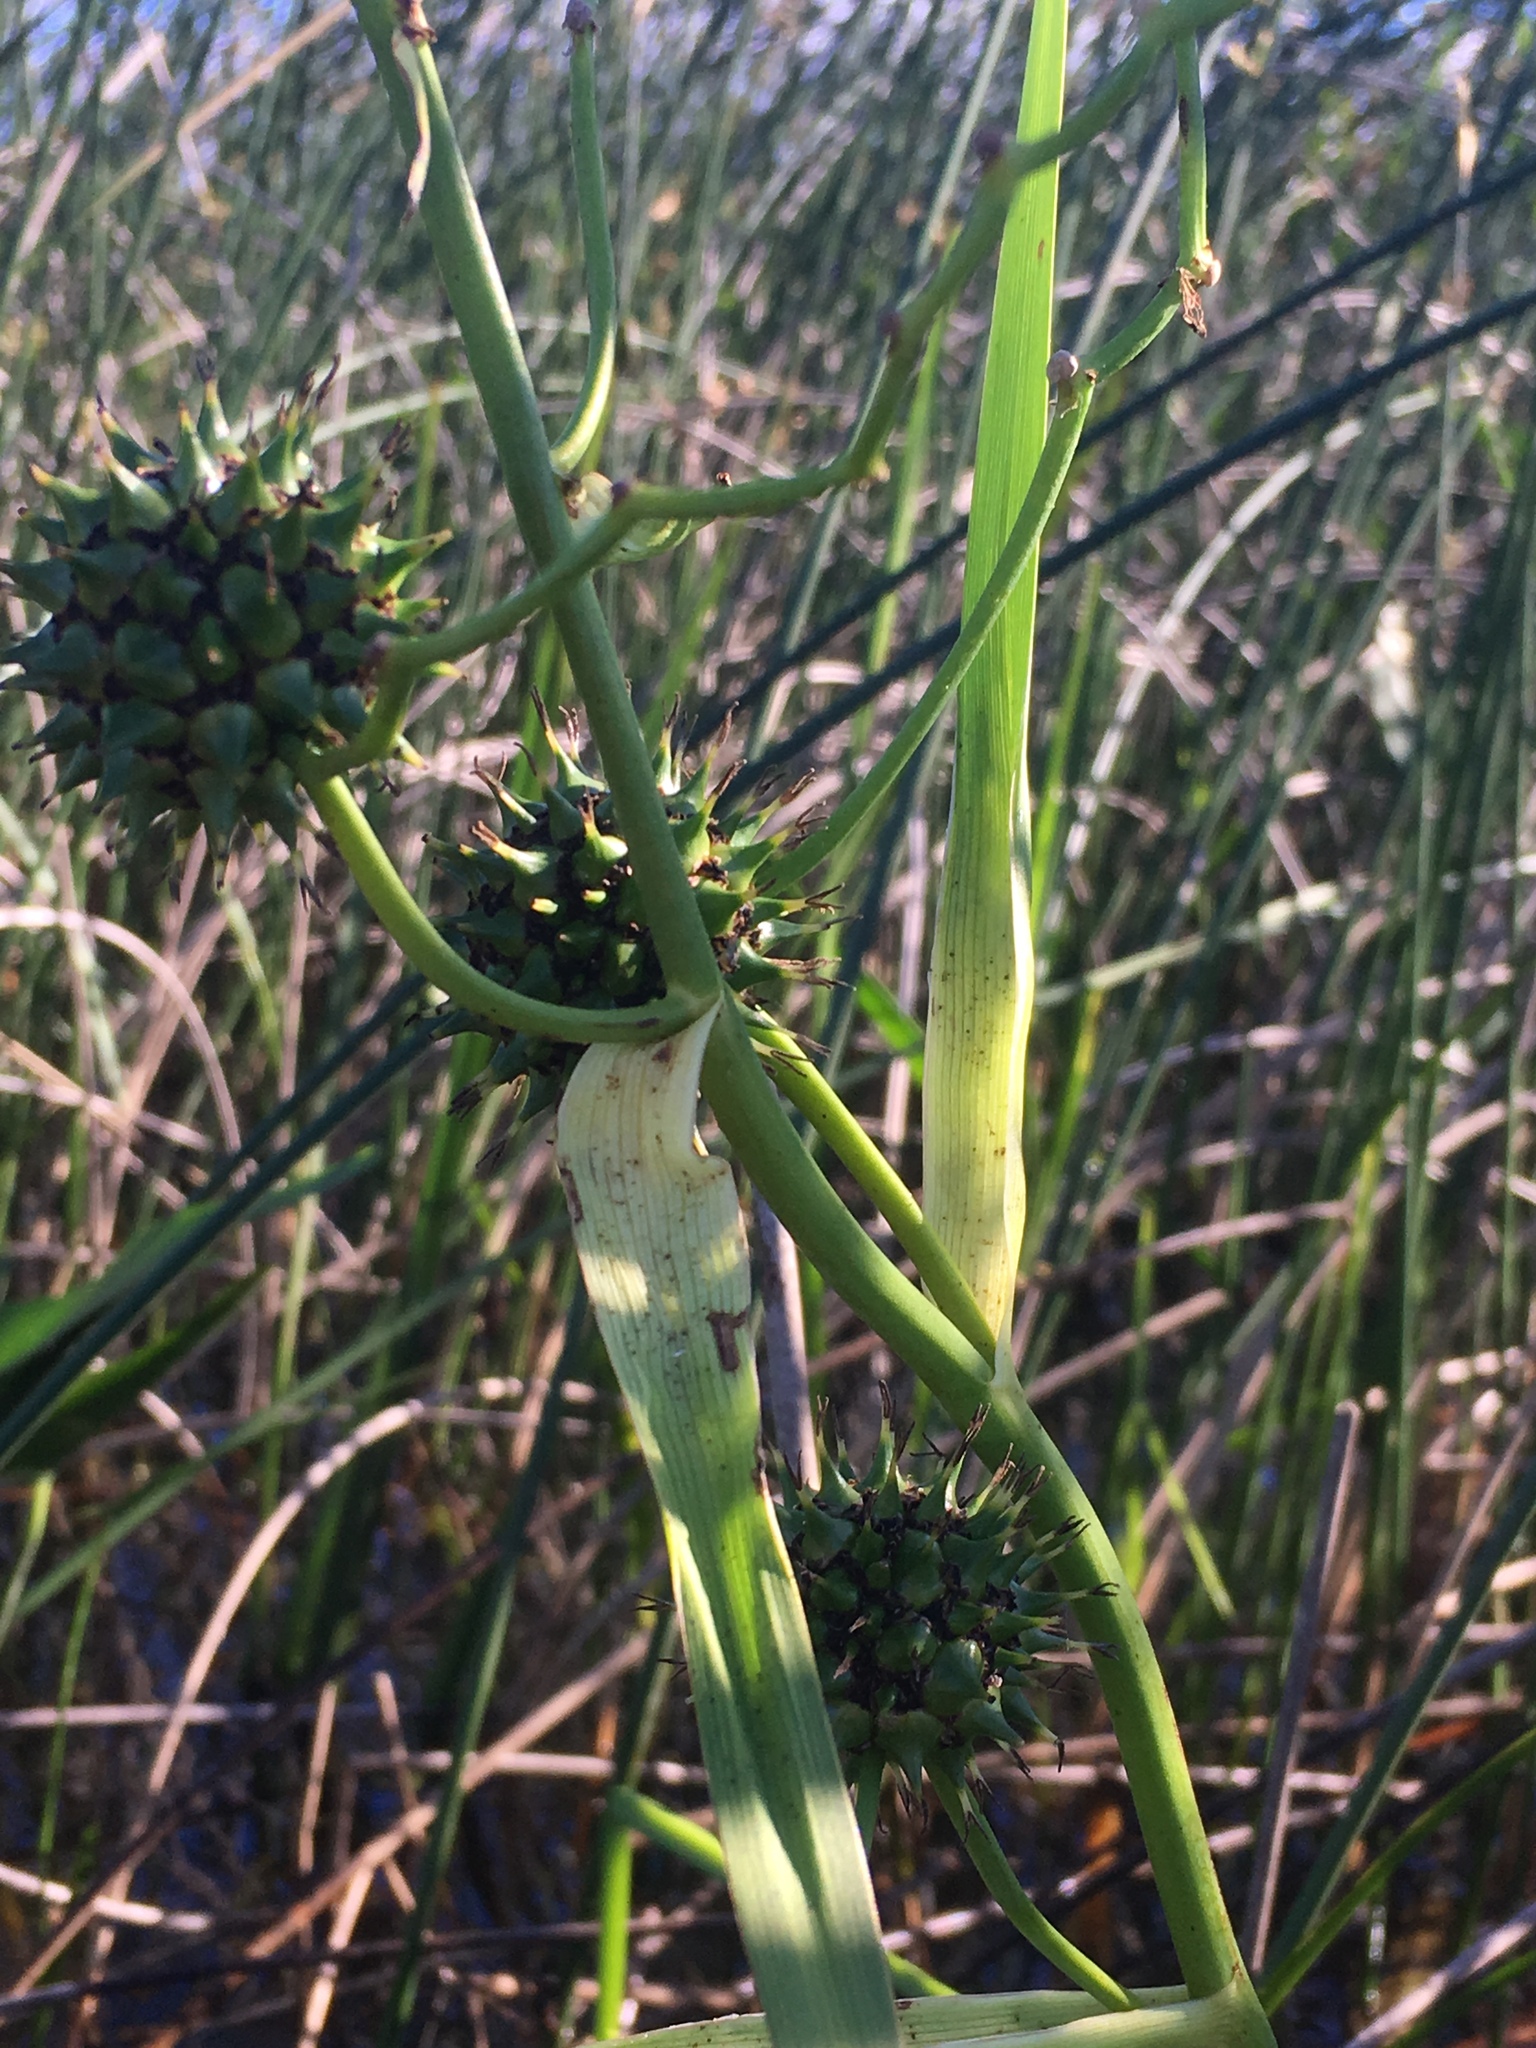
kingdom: Plantae
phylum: Tracheophyta
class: Liliopsida
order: Poales
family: Typhaceae
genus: Sparganium
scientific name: Sparganium eurycarpum
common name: Broad-fruited burreed
